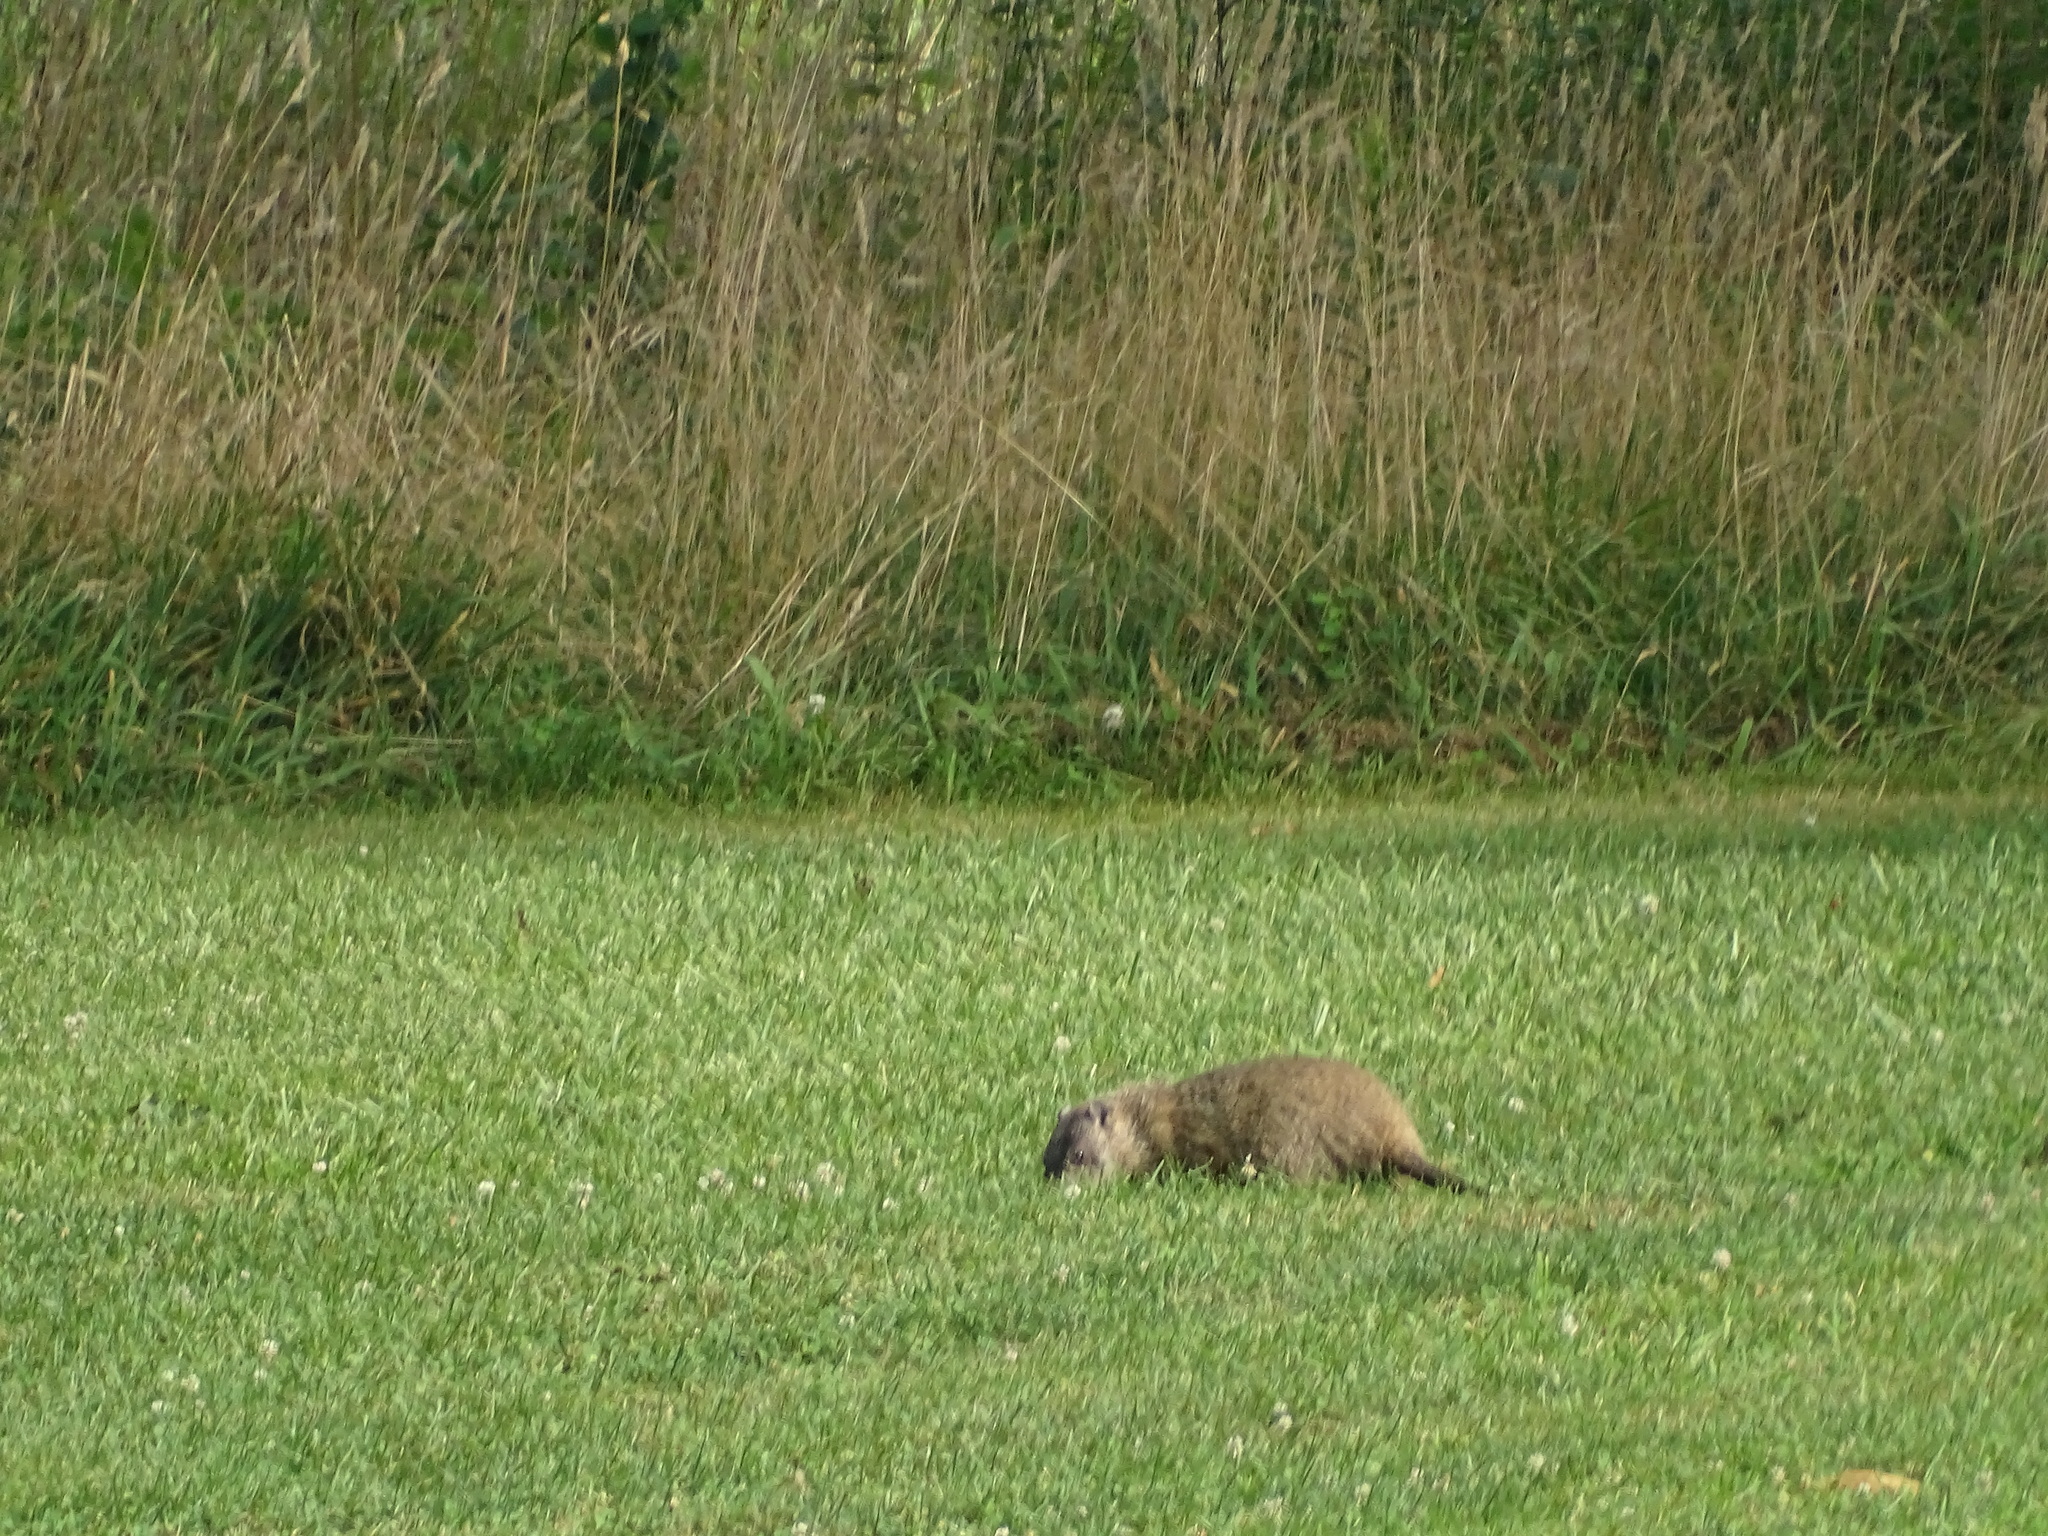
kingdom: Animalia
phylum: Chordata
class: Mammalia
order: Rodentia
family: Sciuridae
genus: Marmota
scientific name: Marmota monax
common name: Groundhog
